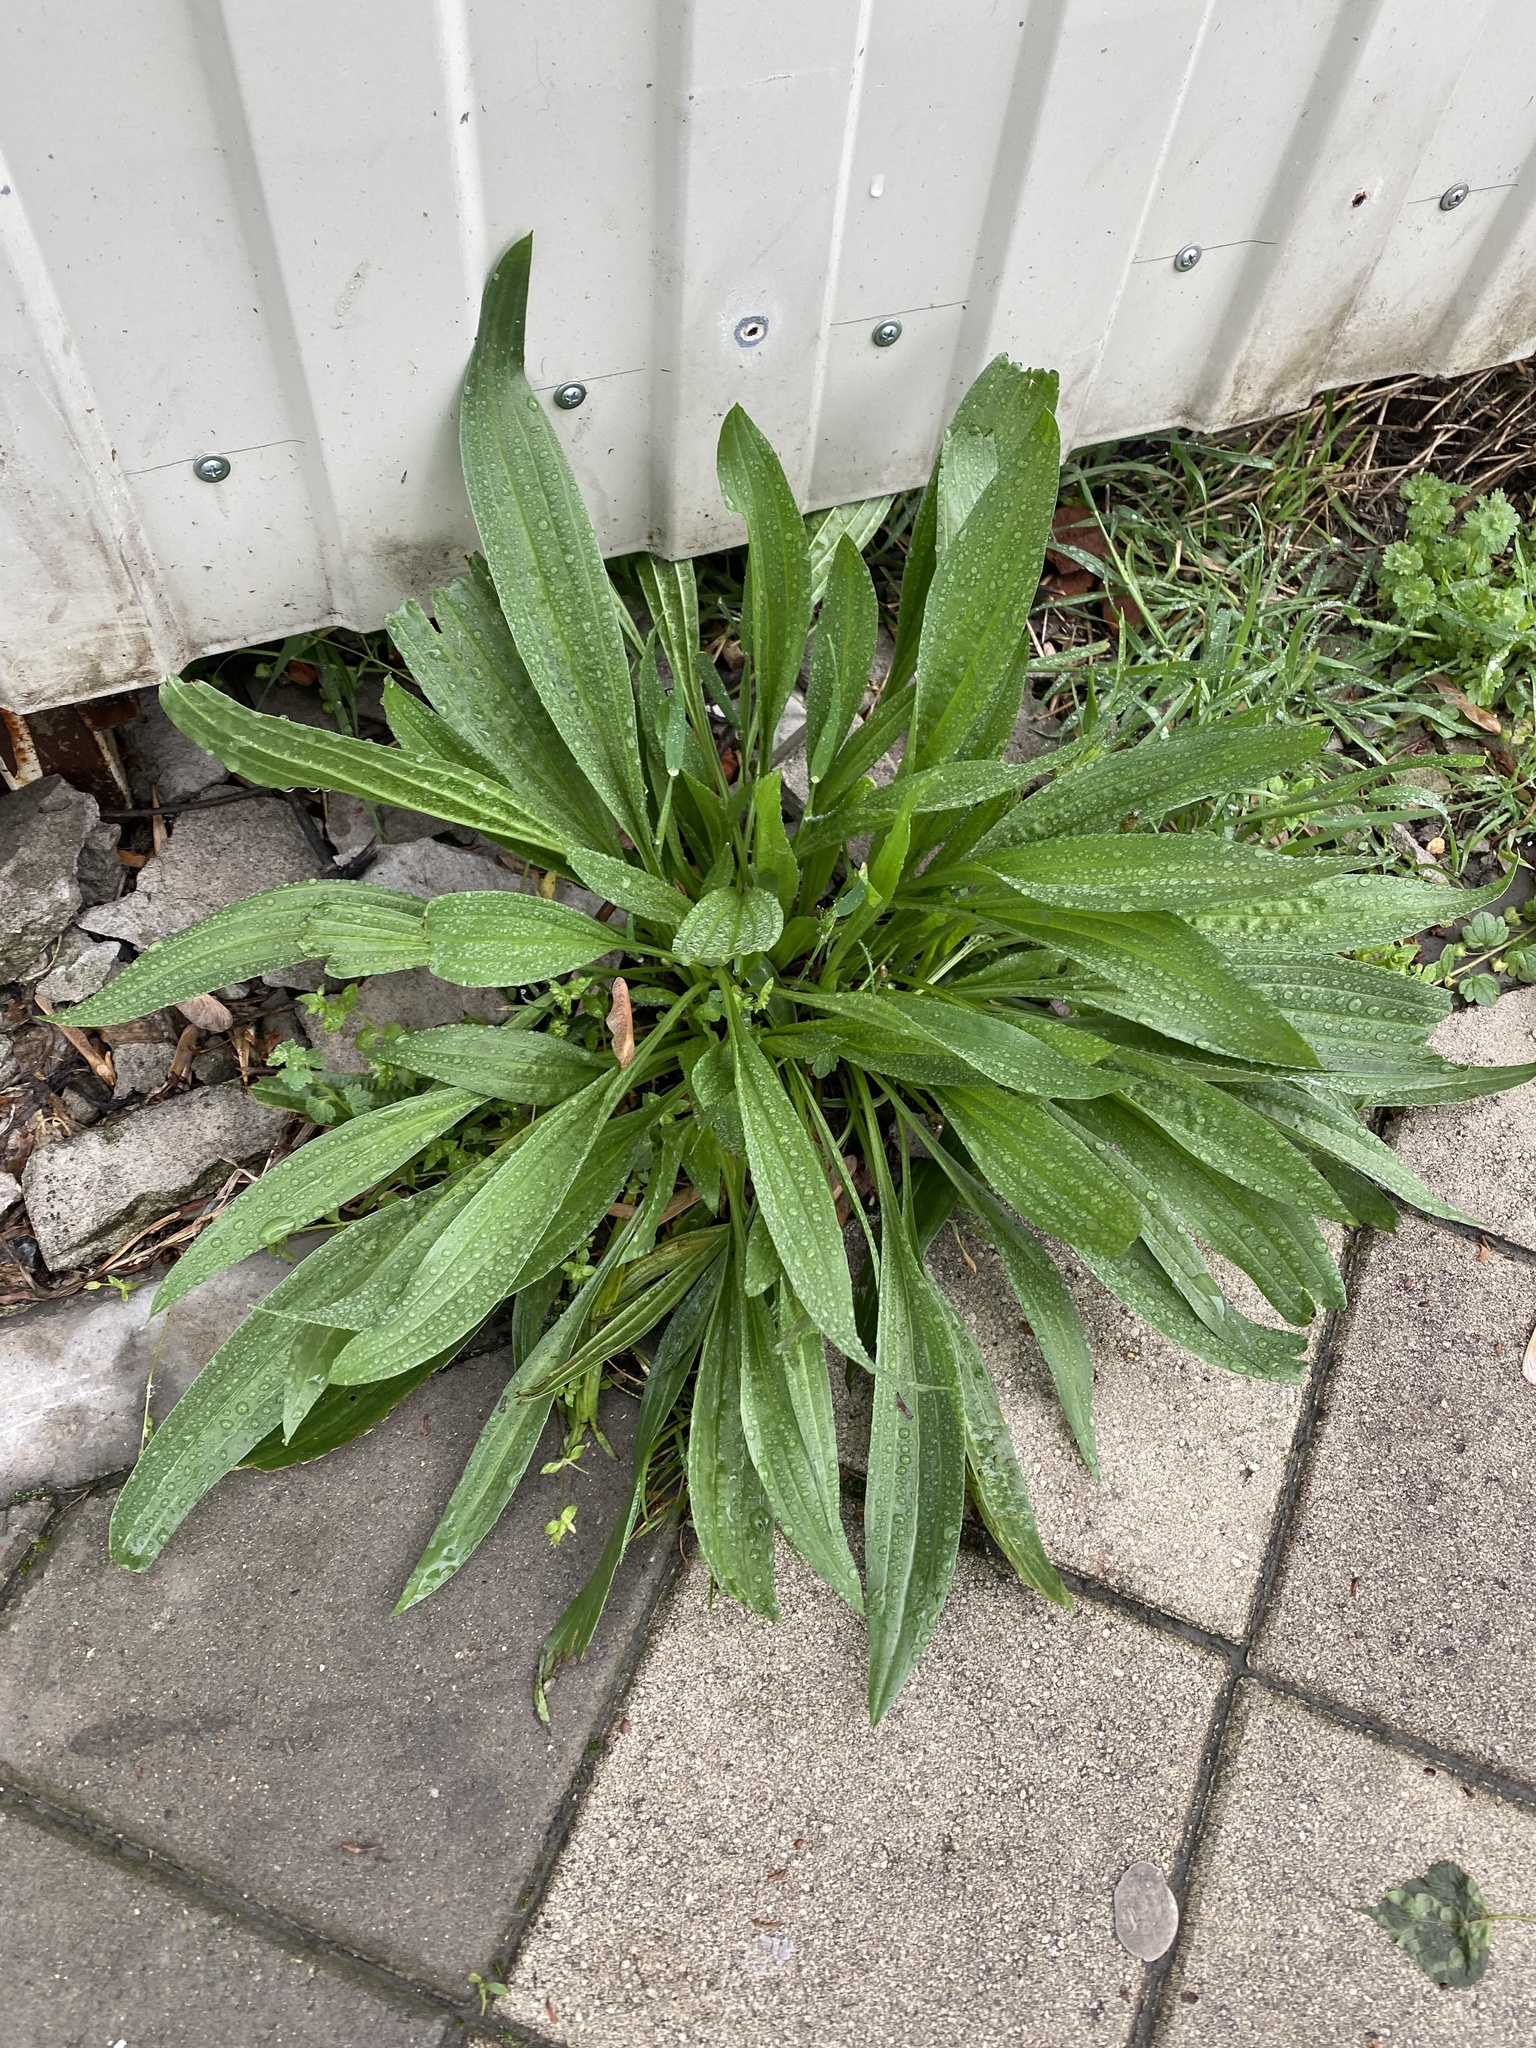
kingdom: Plantae
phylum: Tracheophyta
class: Magnoliopsida
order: Lamiales
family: Plantaginaceae
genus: Plantago
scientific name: Plantago lanceolata
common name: Ribwort plantain
